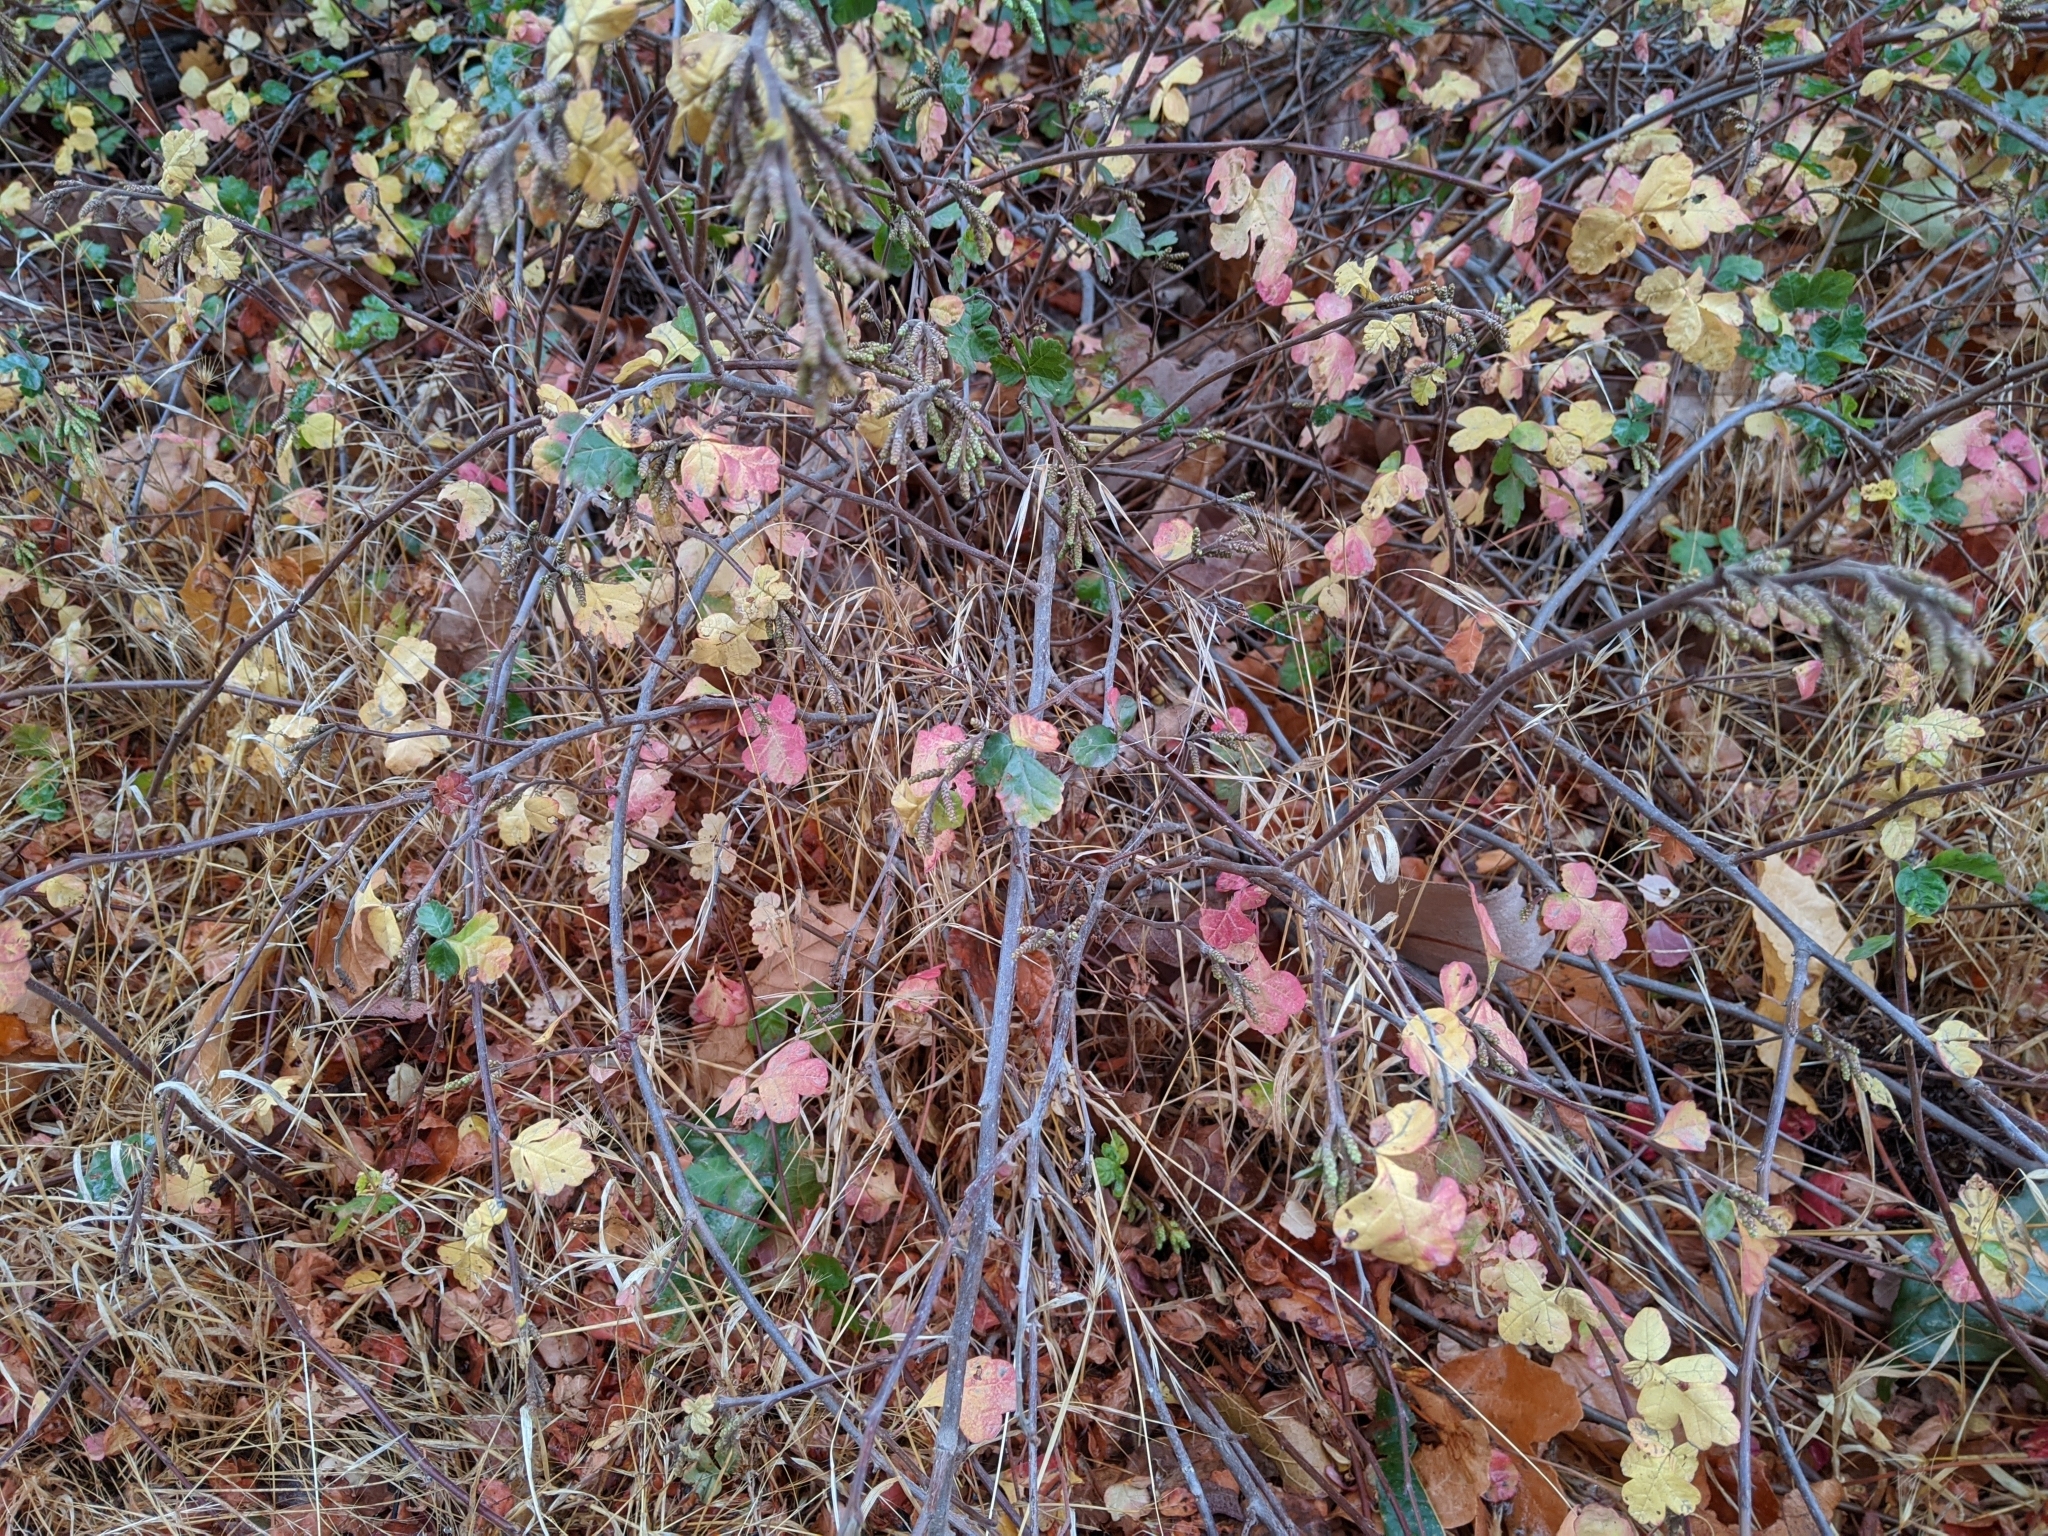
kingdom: Plantae
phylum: Tracheophyta
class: Magnoliopsida
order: Sapindales
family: Anacardiaceae
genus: Rhus
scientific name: Rhus aromatica
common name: Aromatic sumac
